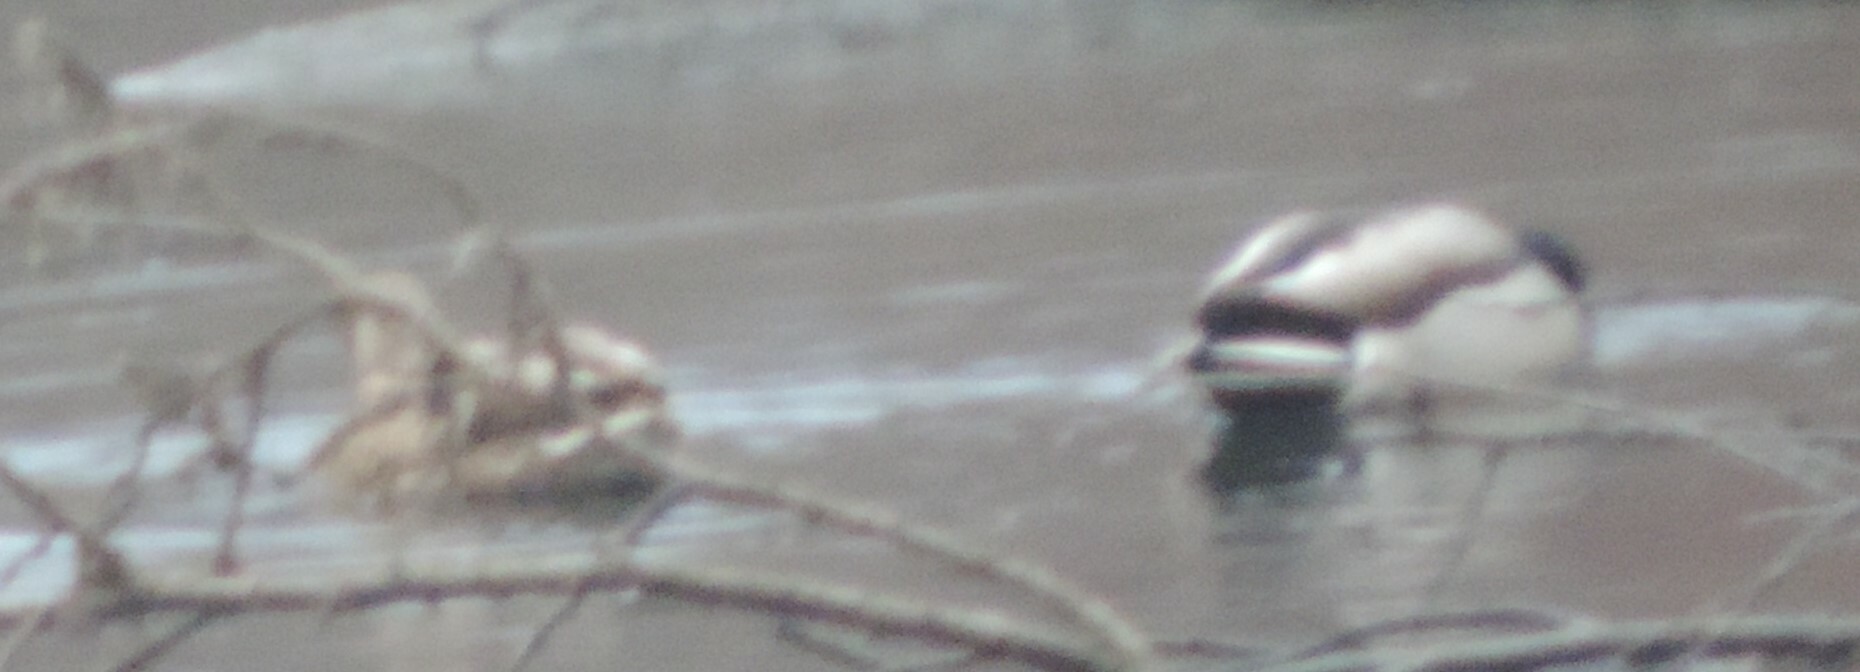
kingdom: Animalia
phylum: Chordata
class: Aves
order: Anseriformes
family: Anatidae
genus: Anas
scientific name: Anas platyrhynchos
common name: Mallard
